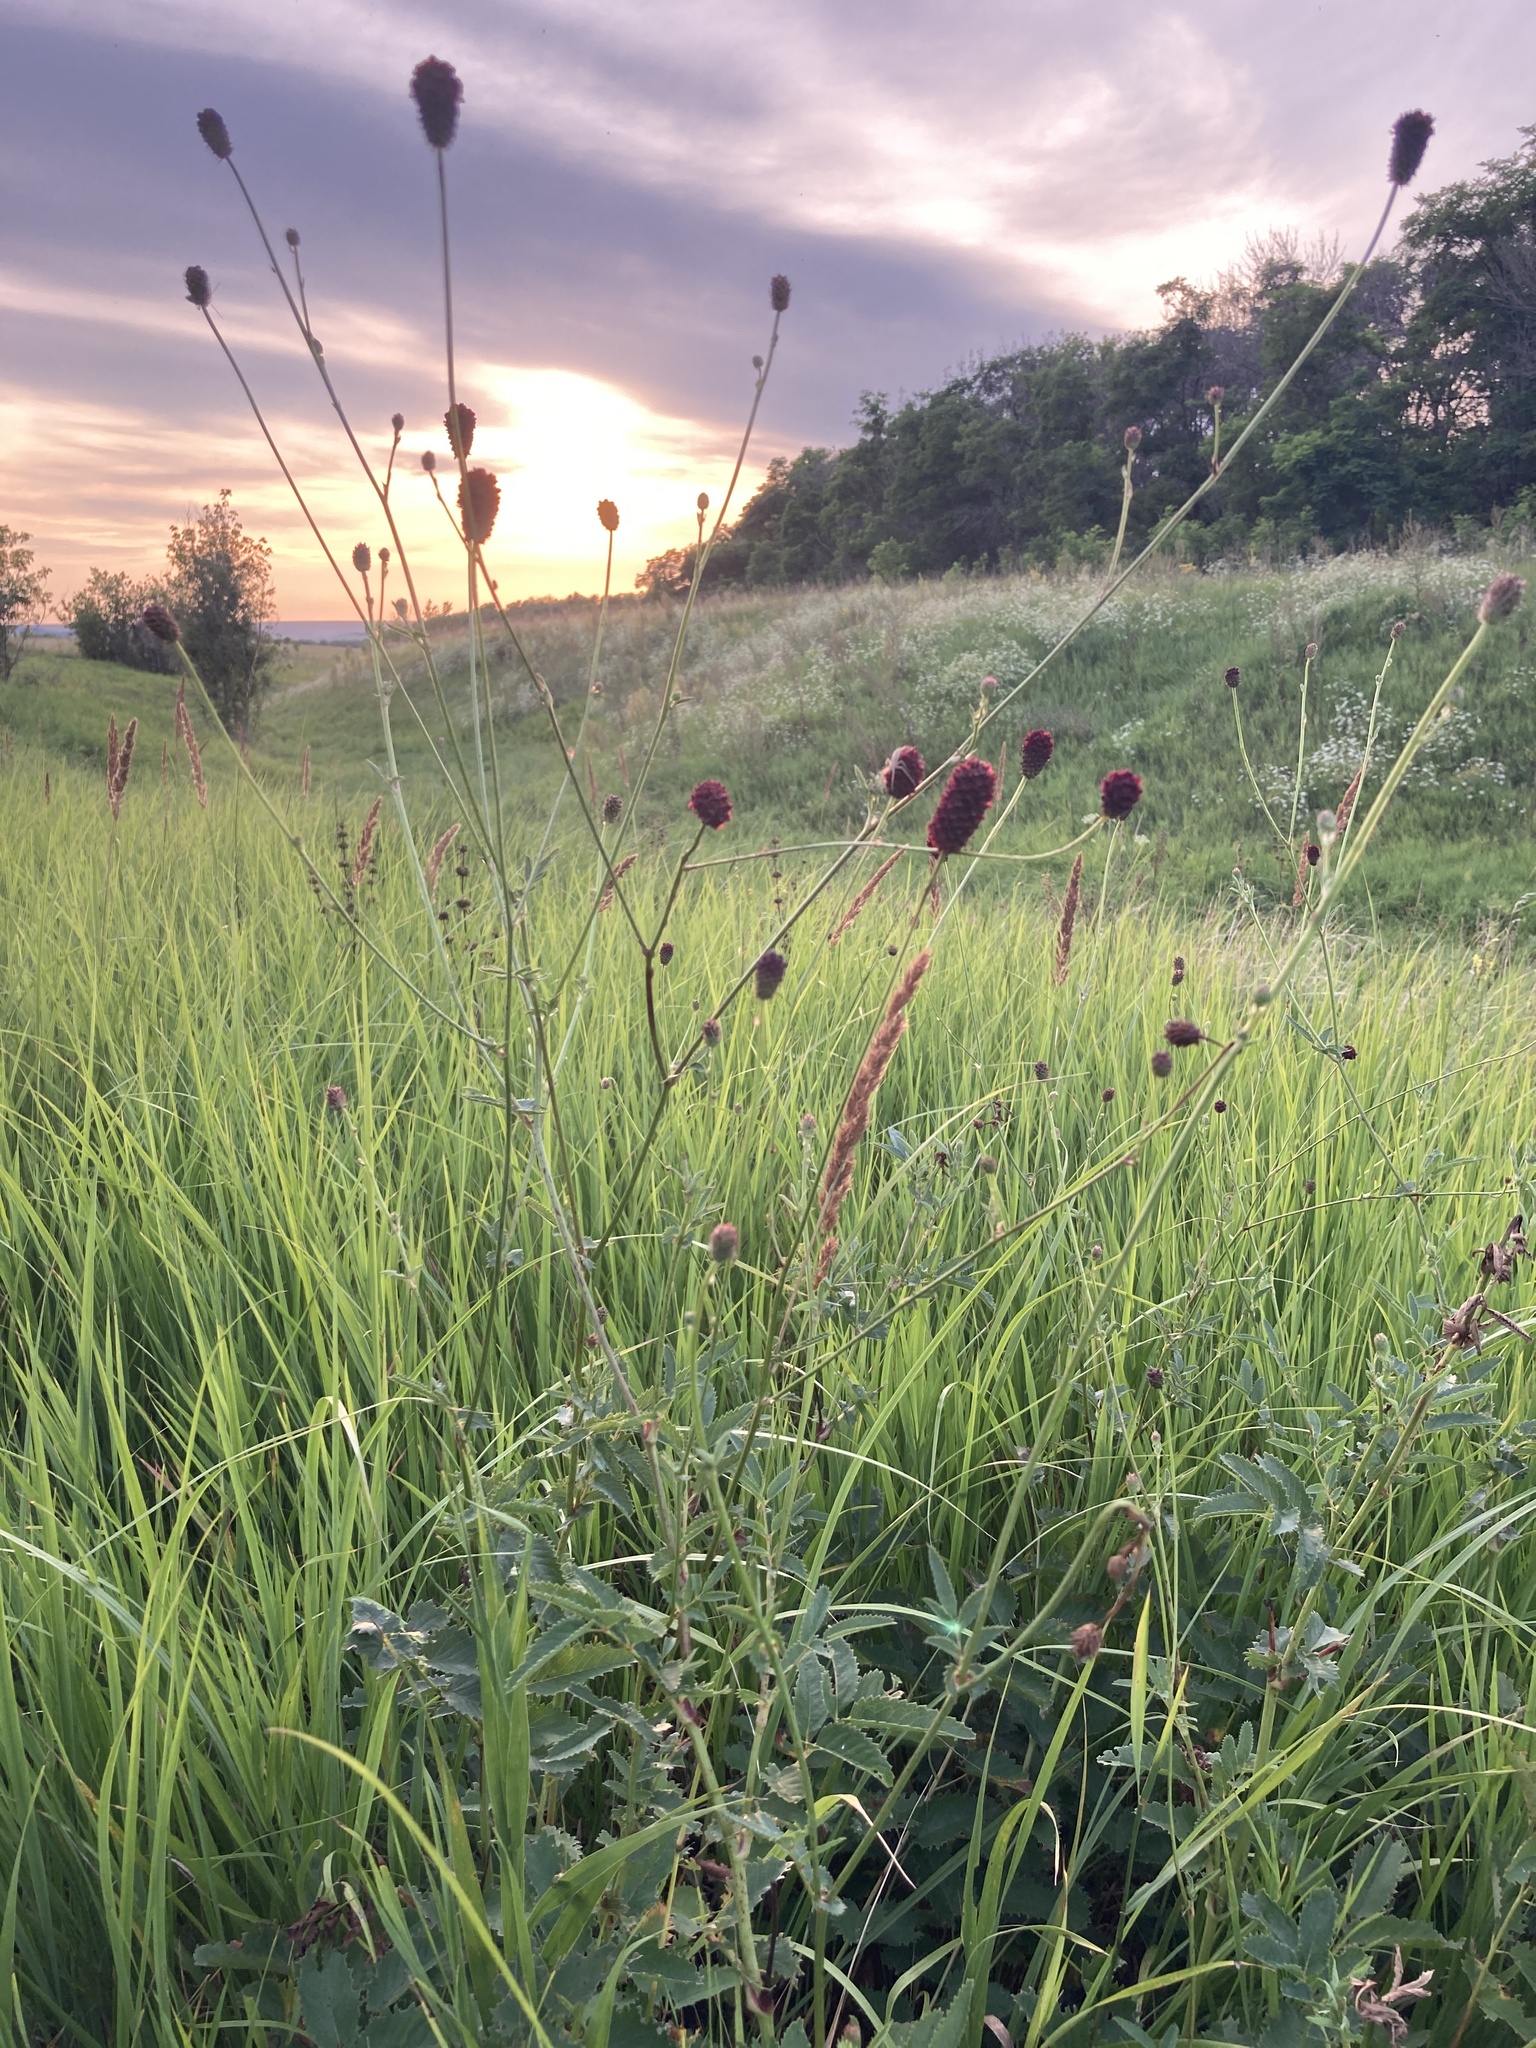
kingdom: Plantae
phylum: Tracheophyta
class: Magnoliopsida
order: Rosales
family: Rosaceae
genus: Sanguisorba
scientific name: Sanguisorba officinalis
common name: Great burnet
